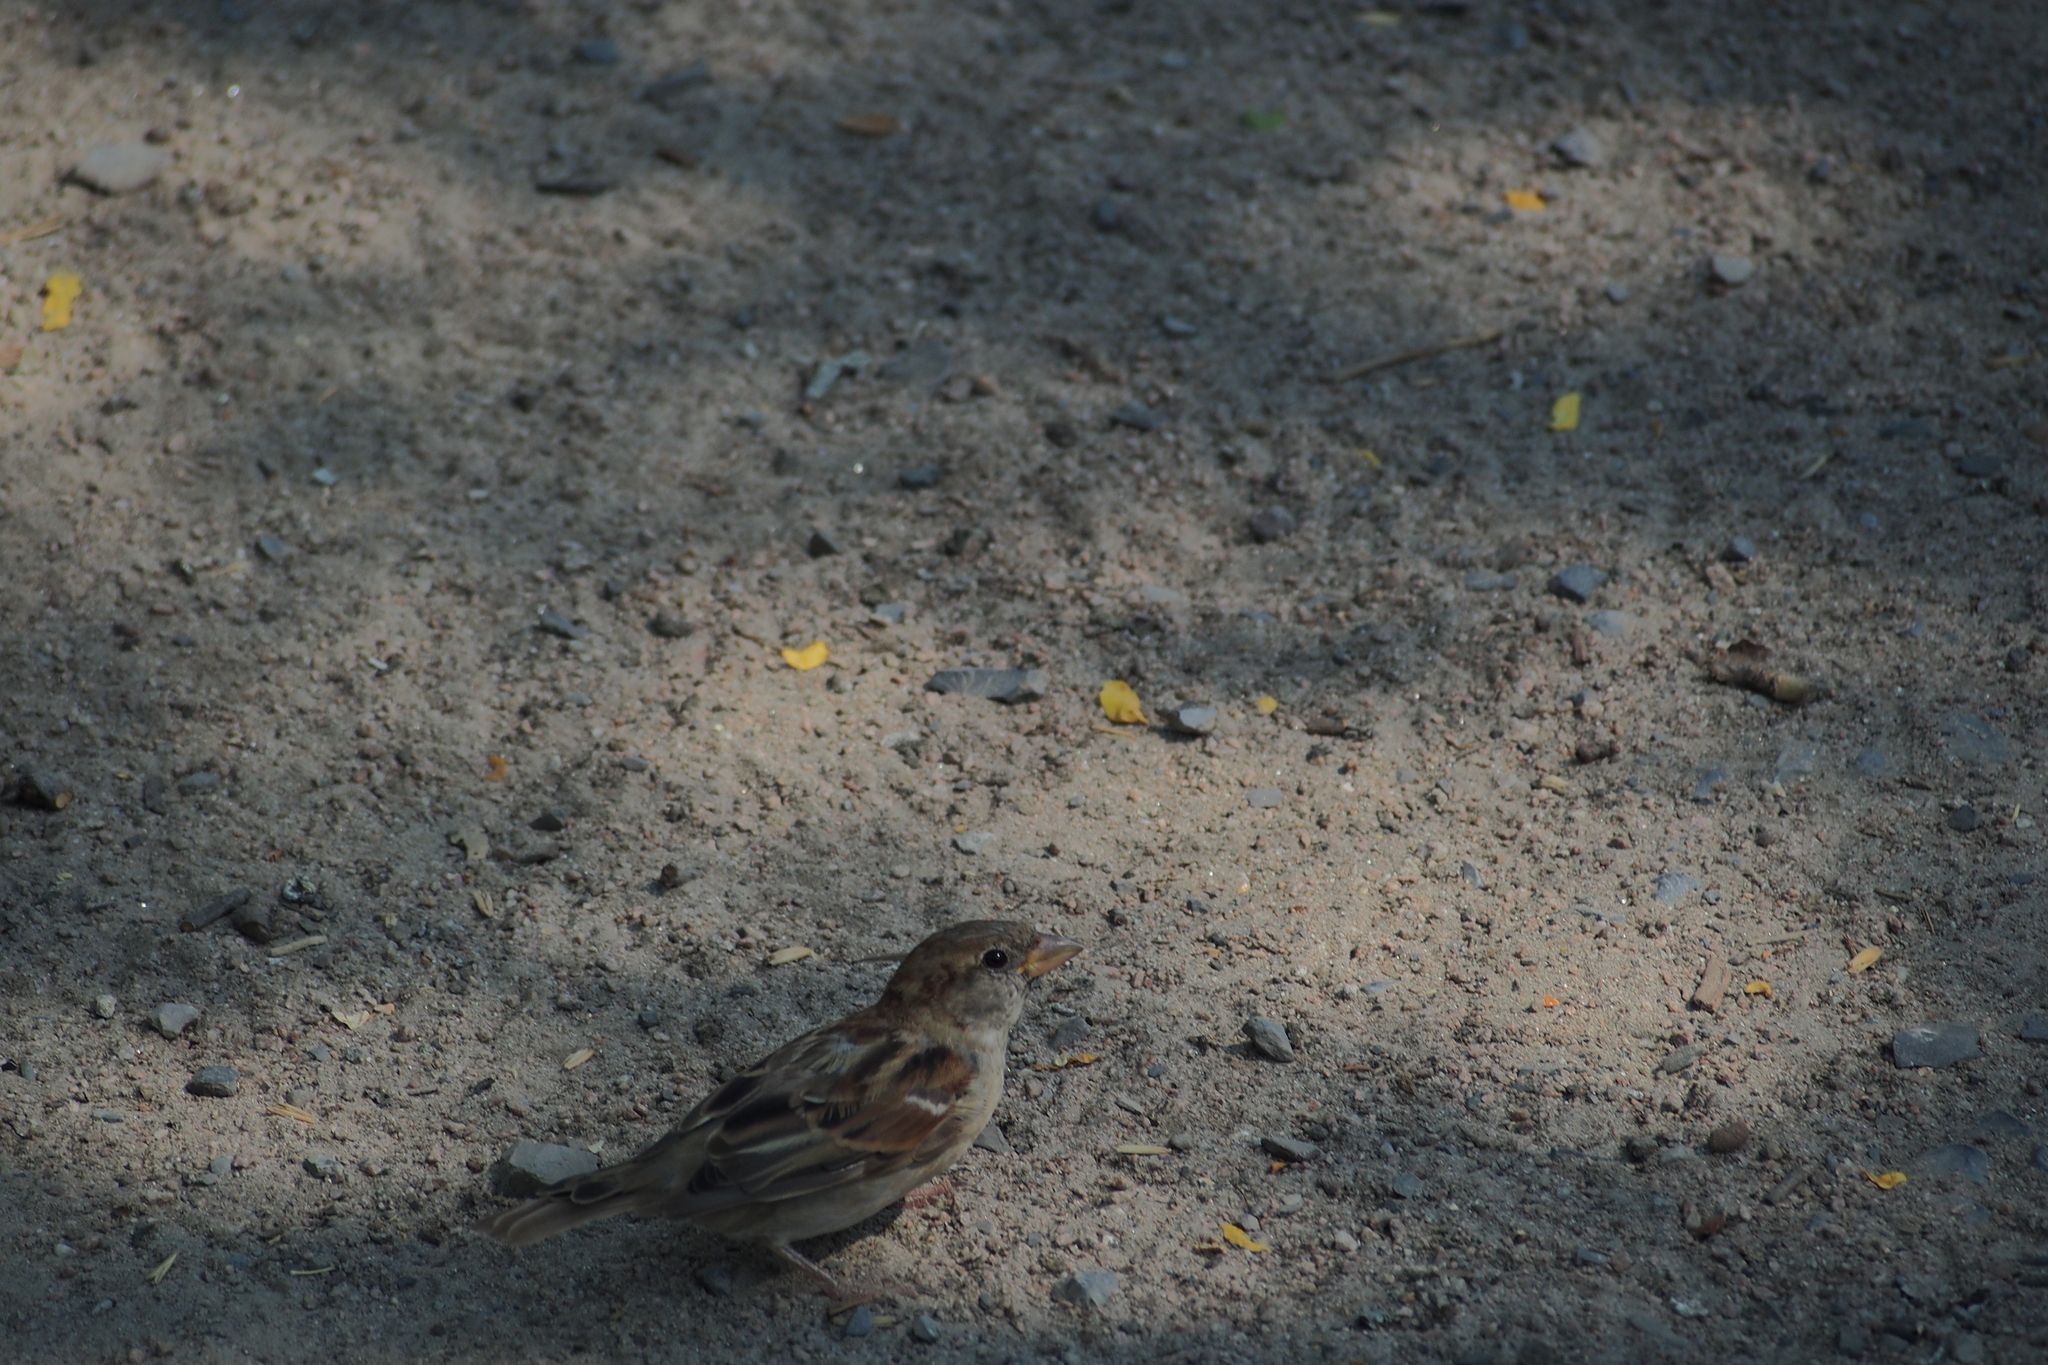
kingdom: Animalia
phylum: Chordata
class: Aves
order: Passeriformes
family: Passeridae
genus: Passer
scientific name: Passer domesticus
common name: House sparrow
